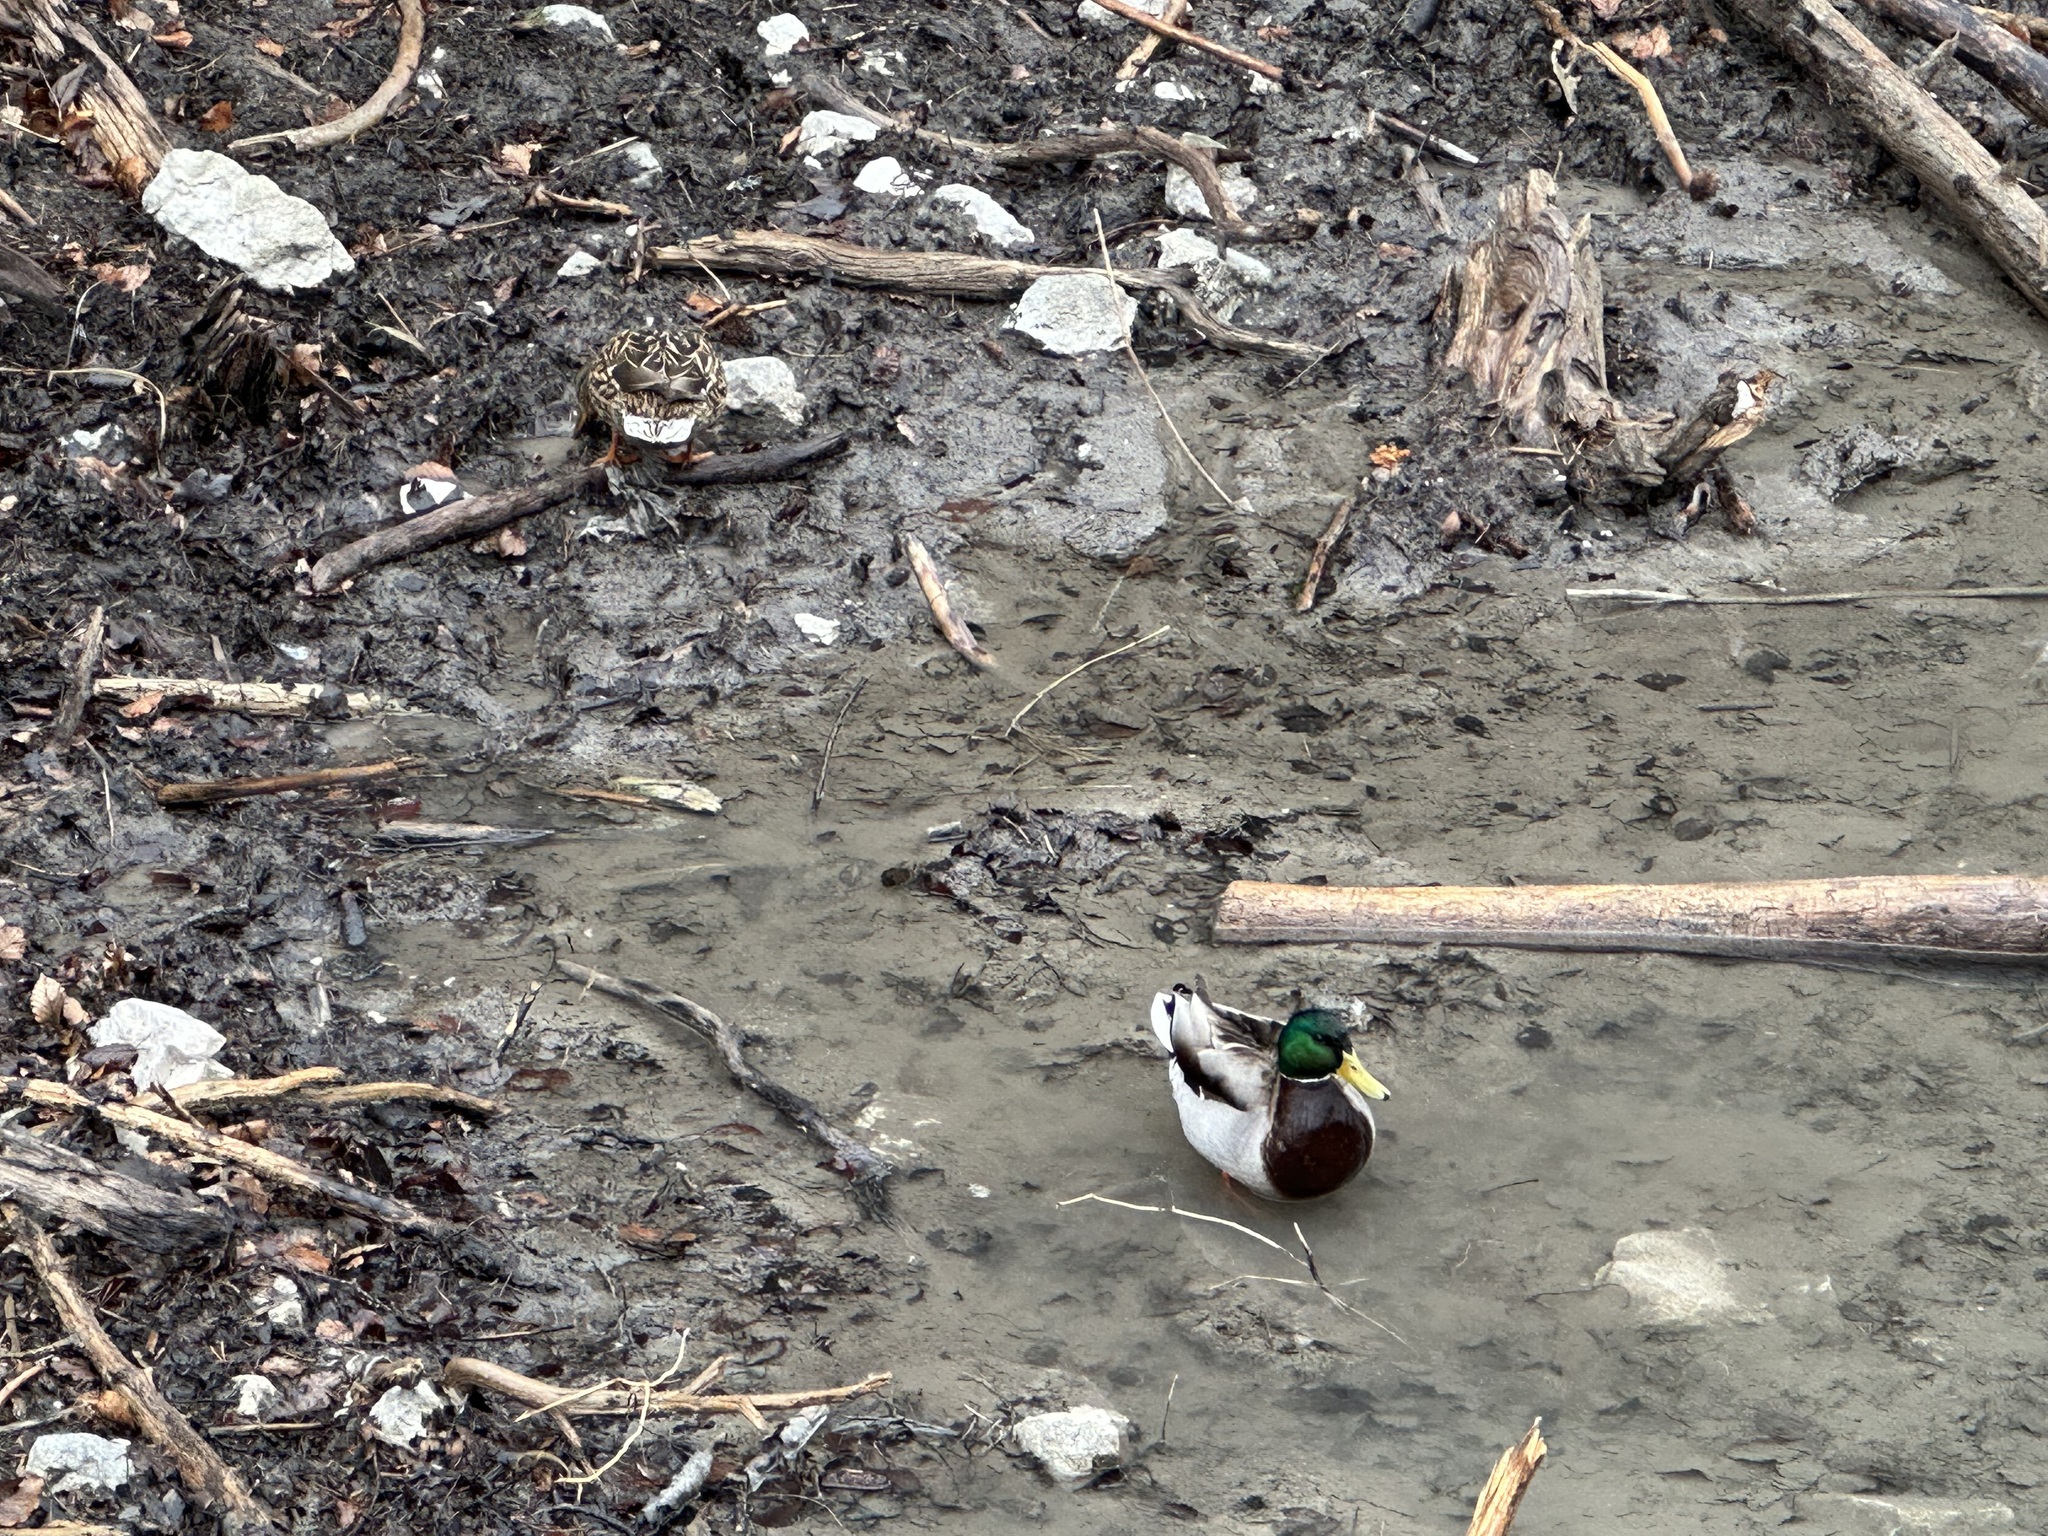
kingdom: Animalia
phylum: Chordata
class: Aves
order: Anseriformes
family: Anatidae
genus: Anas
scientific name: Anas platyrhynchos
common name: Mallard
